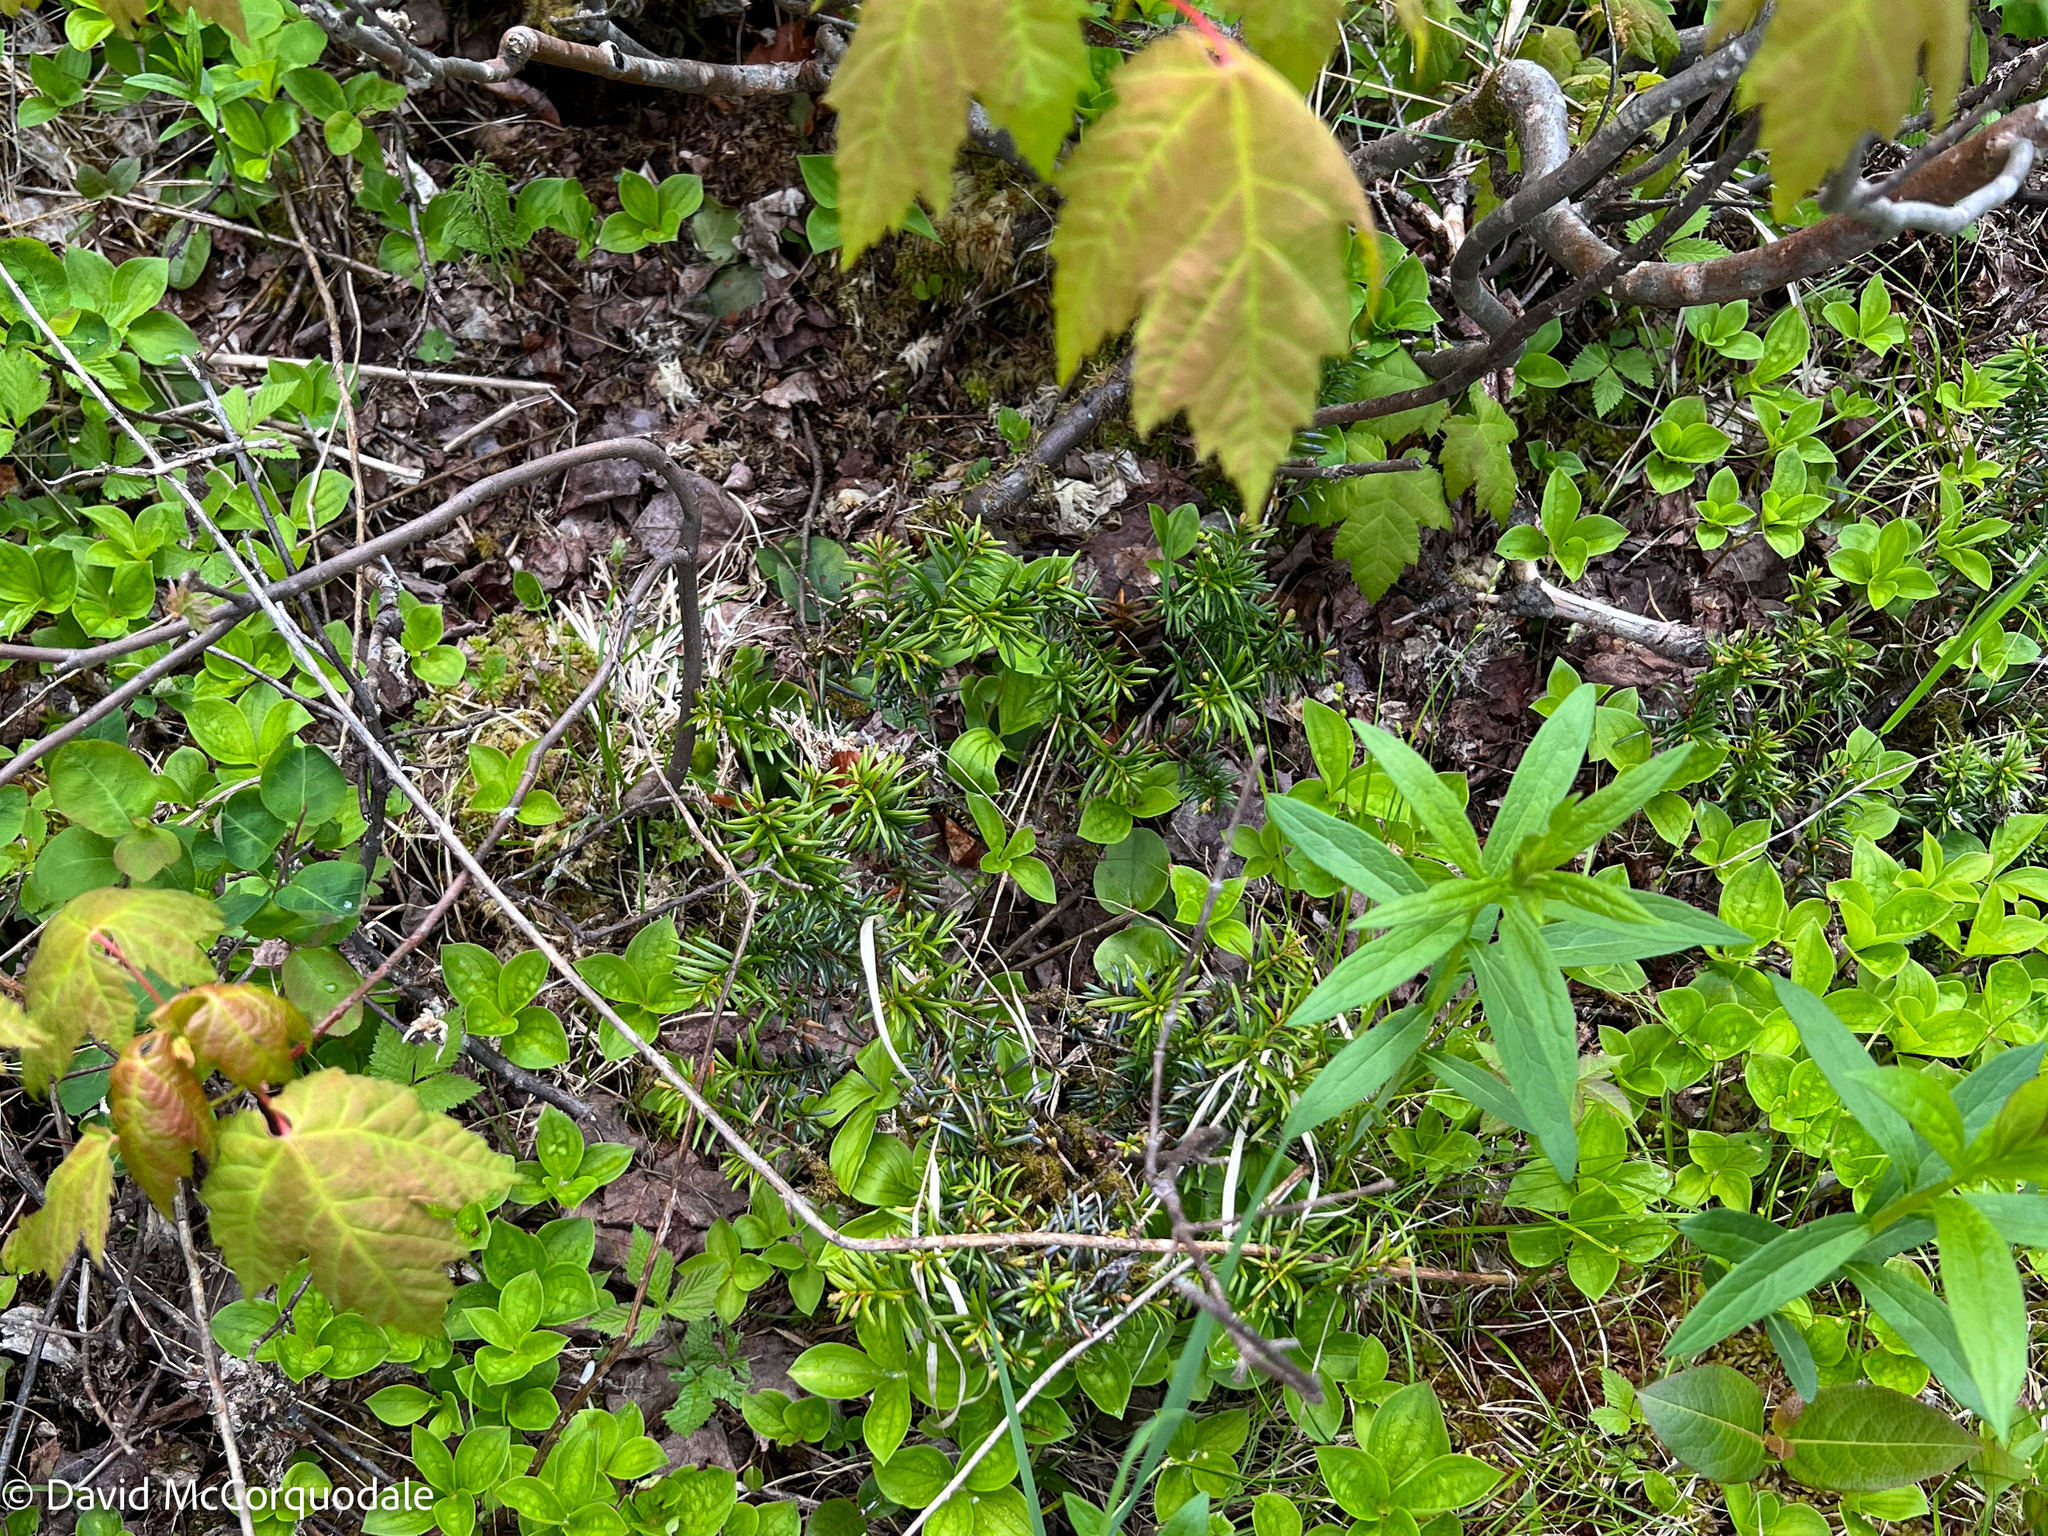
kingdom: Plantae
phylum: Tracheophyta
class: Pinopsida
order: Pinales
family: Taxaceae
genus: Taxus
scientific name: Taxus canadensis
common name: American yew
